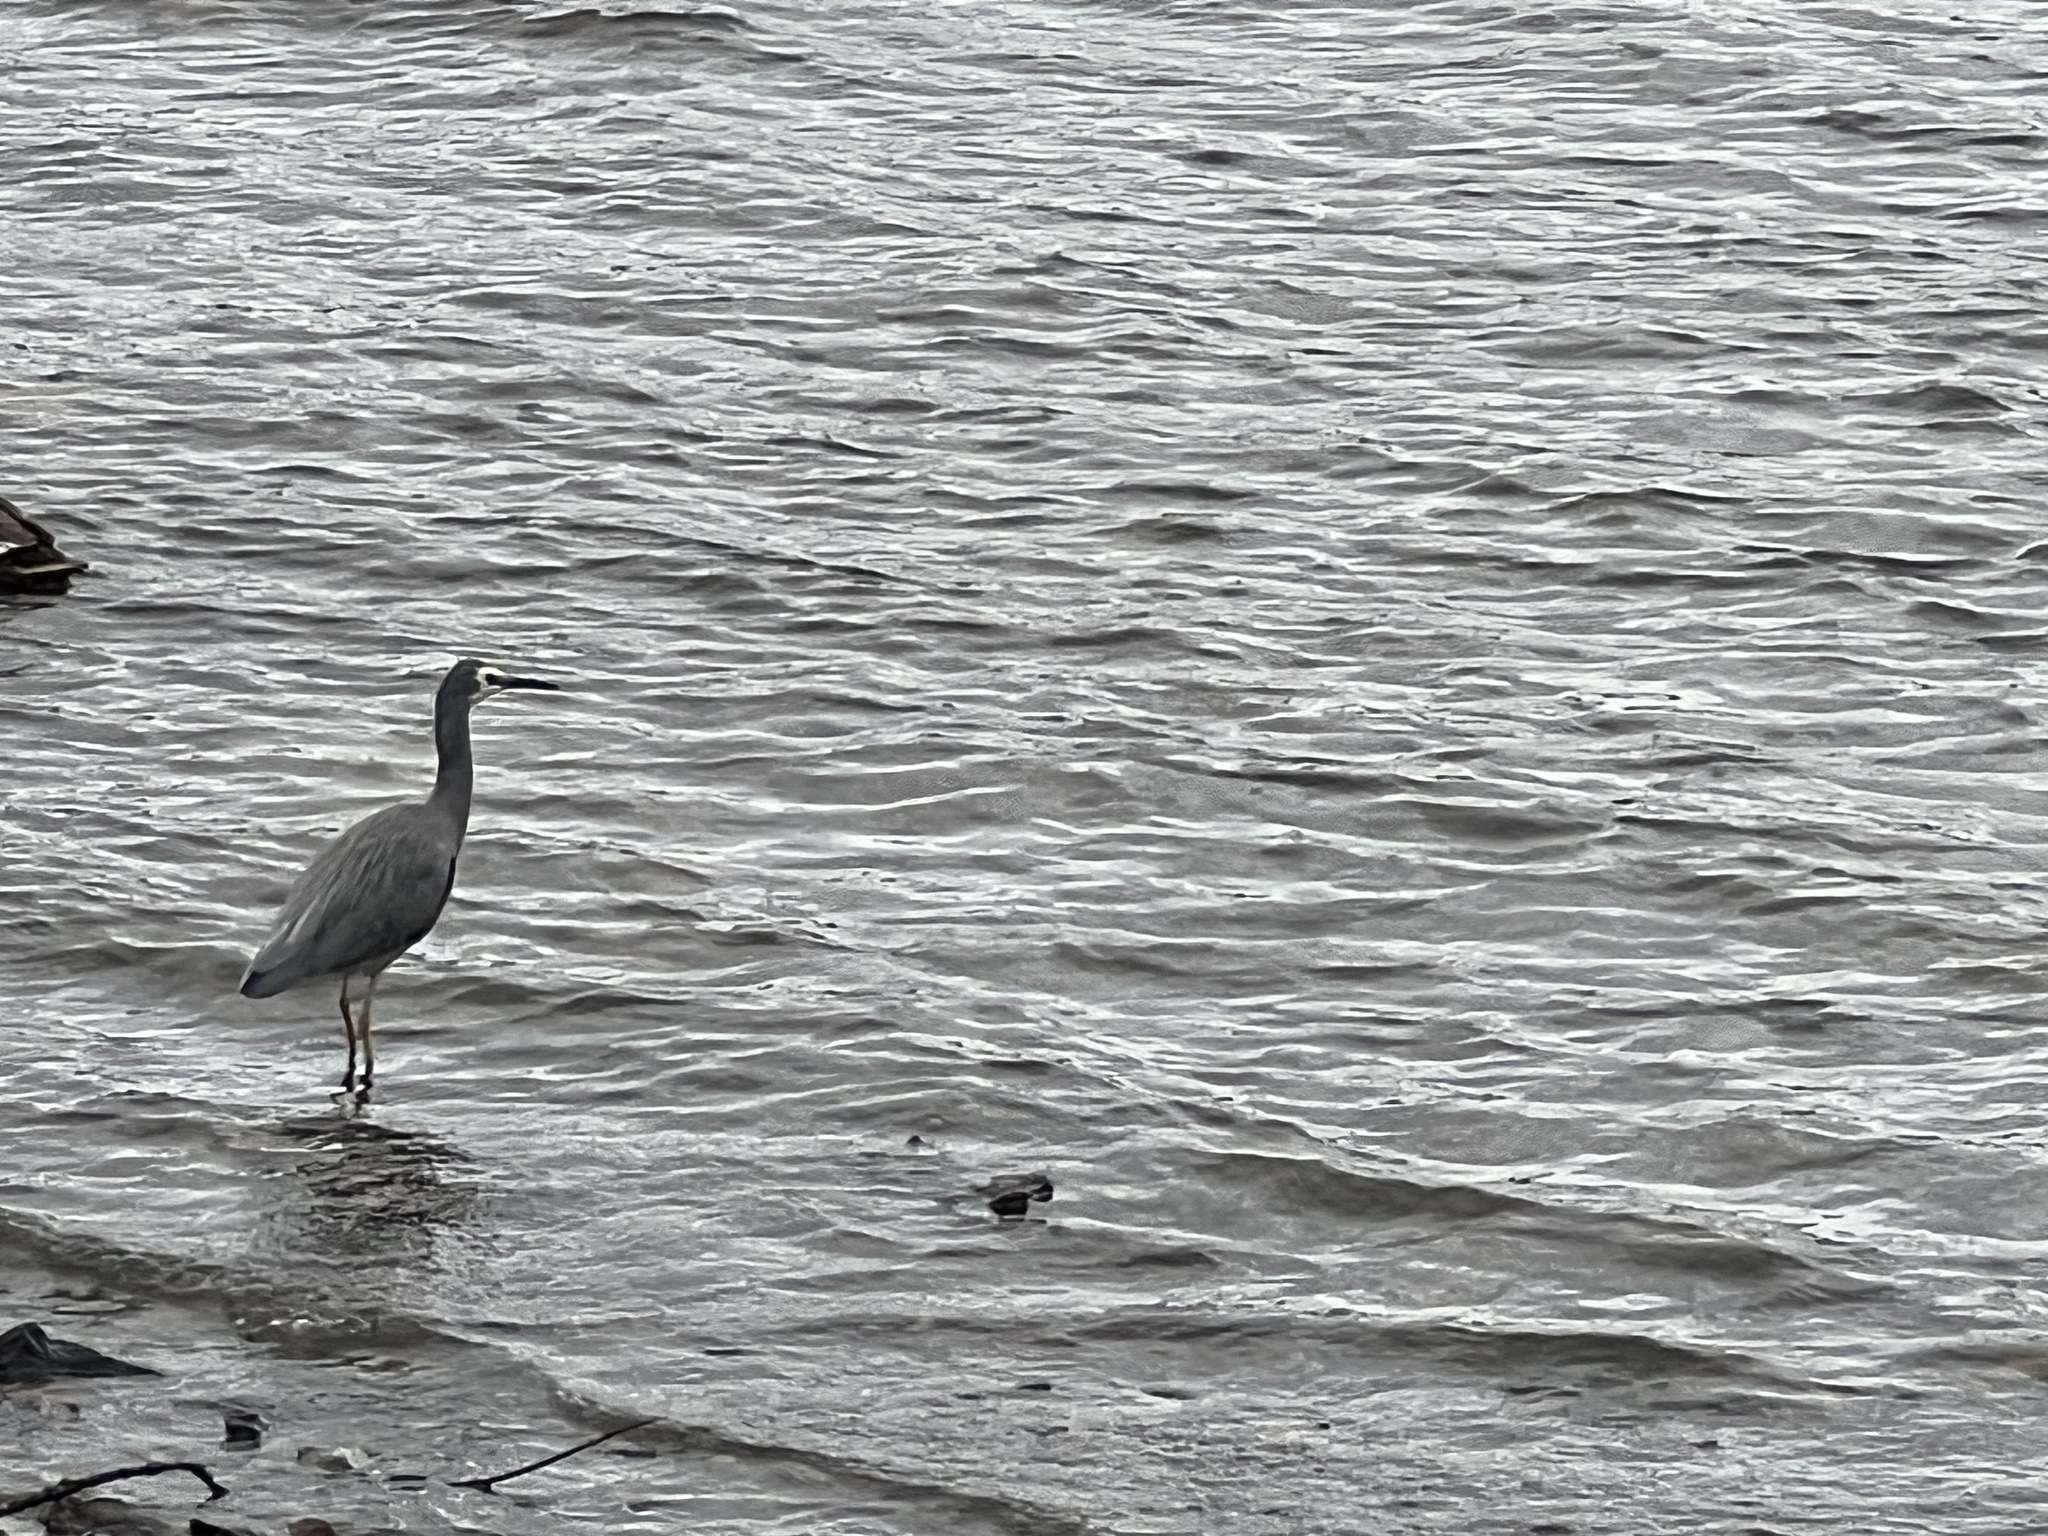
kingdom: Animalia
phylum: Chordata
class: Aves
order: Pelecaniformes
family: Ardeidae
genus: Egretta
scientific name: Egretta novaehollandiae
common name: White-faced heron
